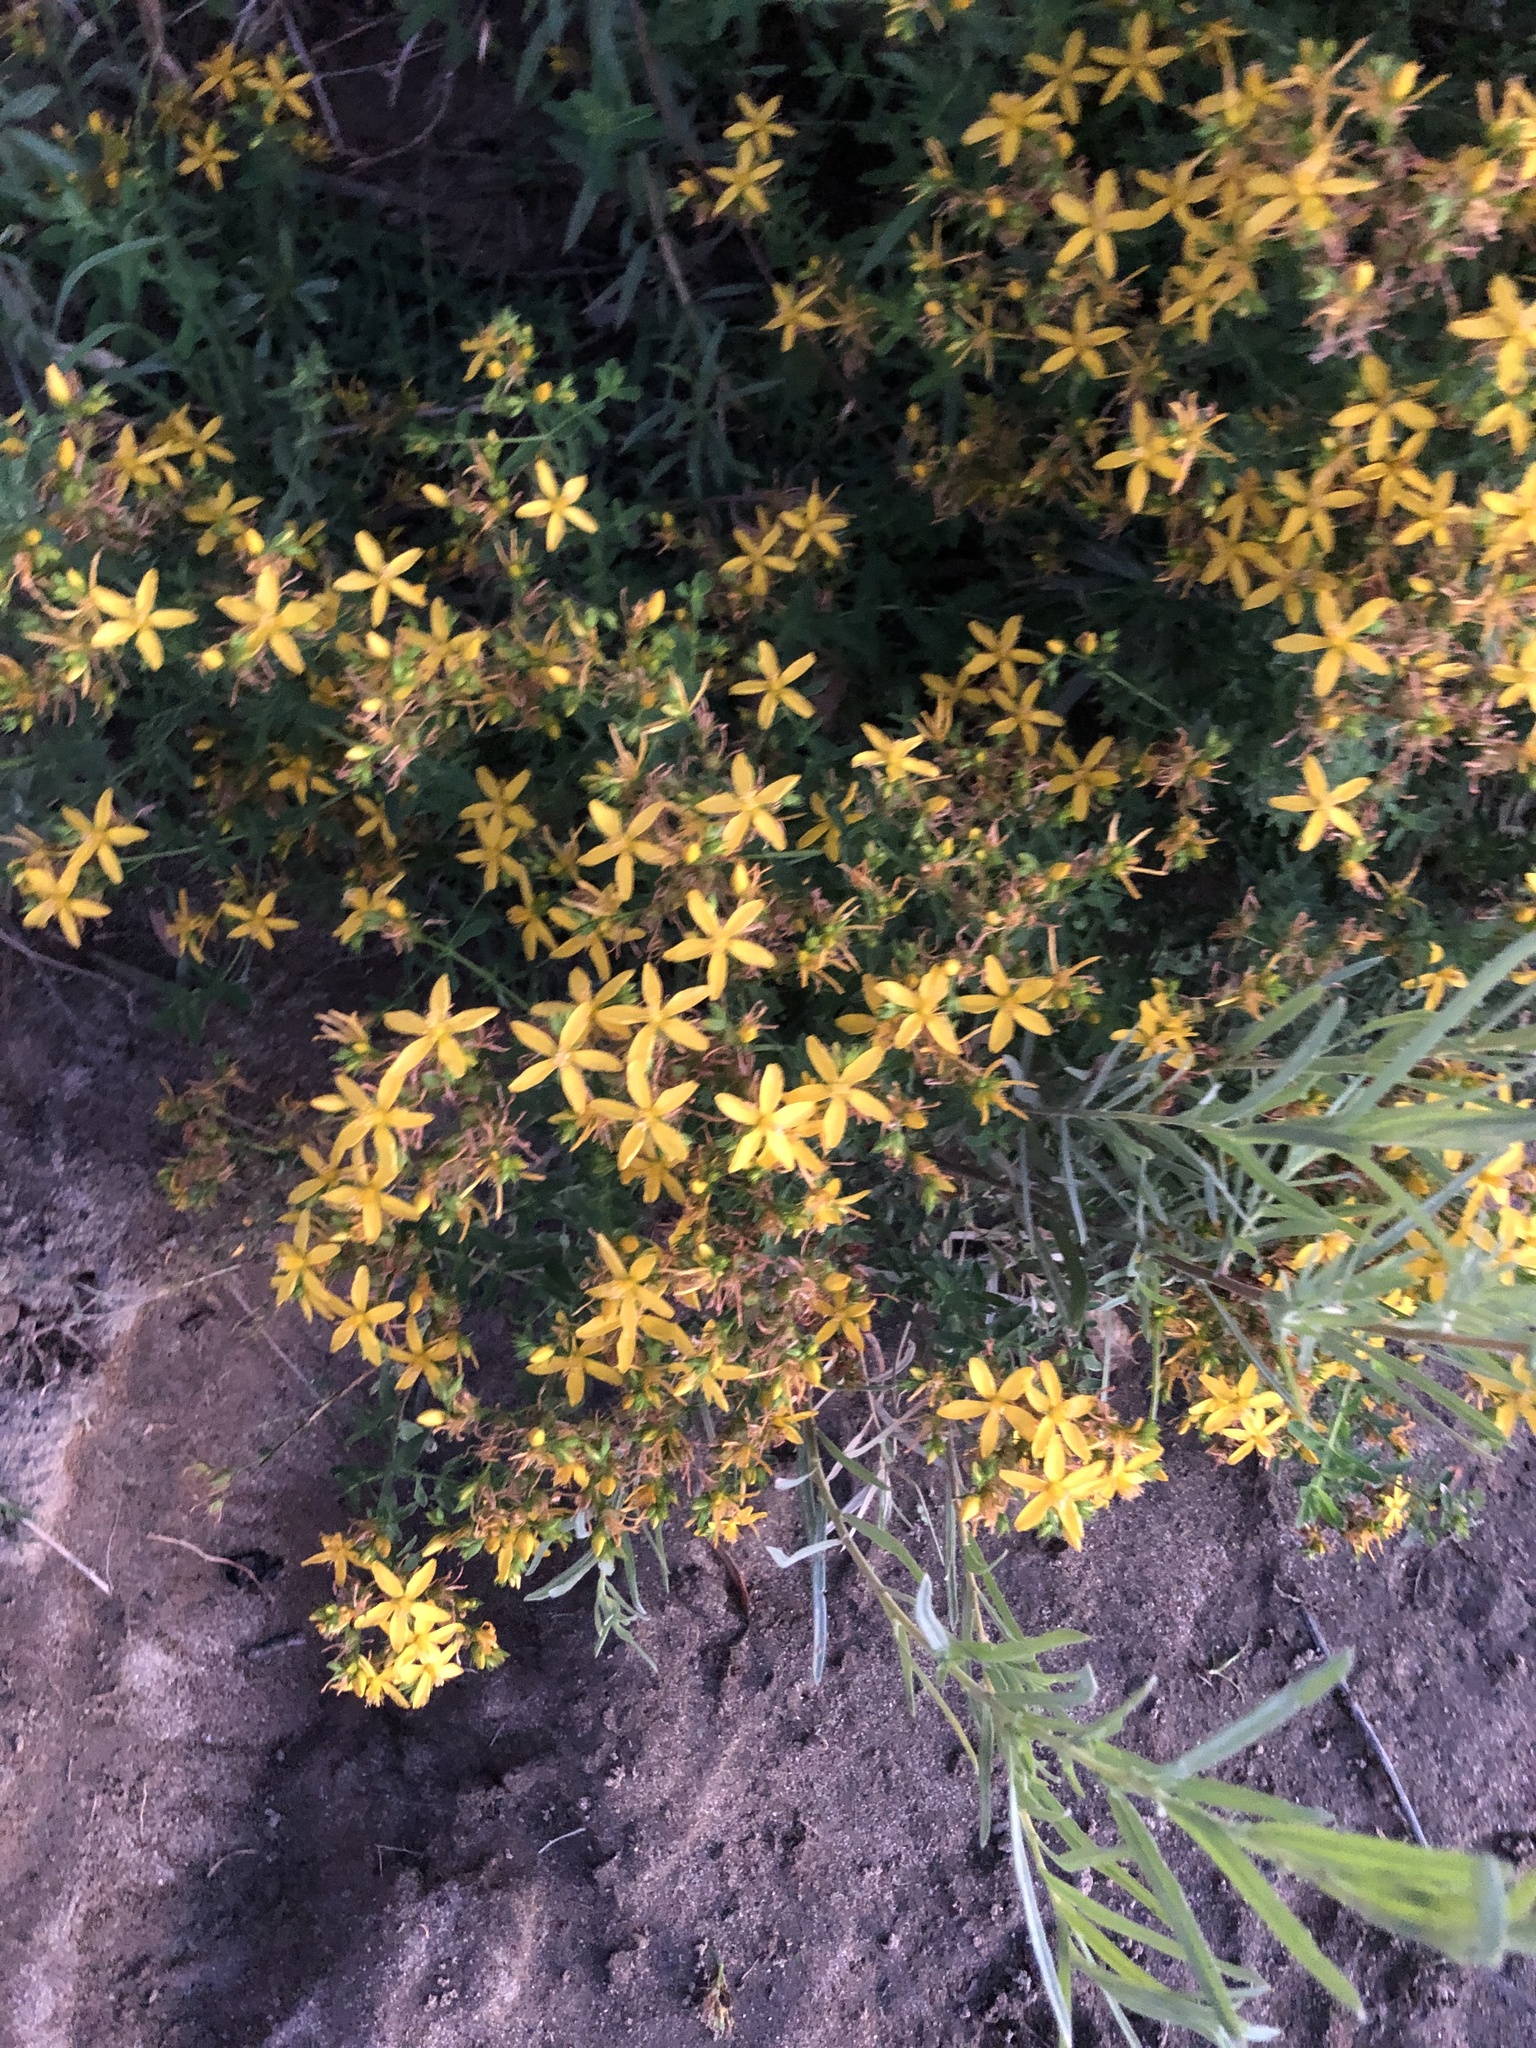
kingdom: Plantae
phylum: Tracheophyta
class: Magnoliopsida
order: Malpighiales
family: Hypericaceae
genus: Hypericum
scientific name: Hypericum perforatum
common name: Common st. johnswort
